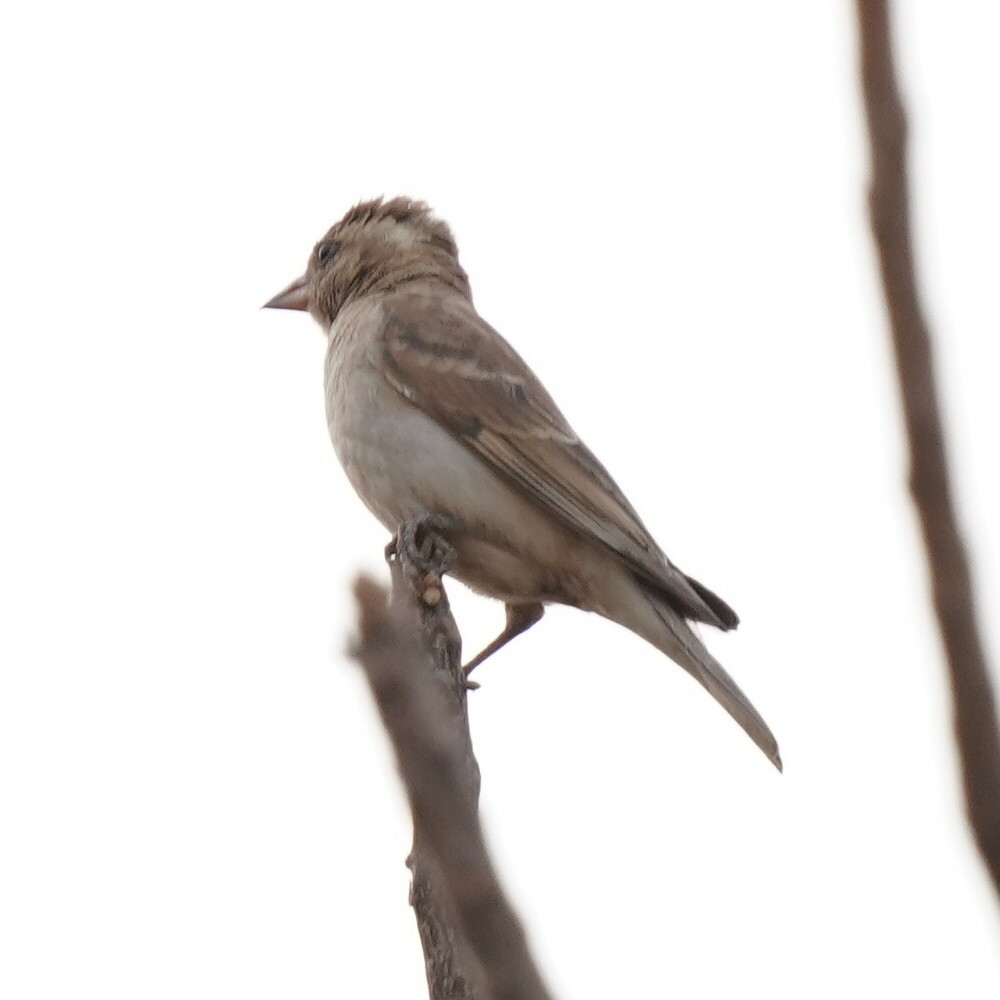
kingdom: Animalia
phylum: Chordata
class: Aves
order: Passeriformes
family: Passeridae
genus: Gymnoris
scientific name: Gymnoris dentata
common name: Bush petronia
